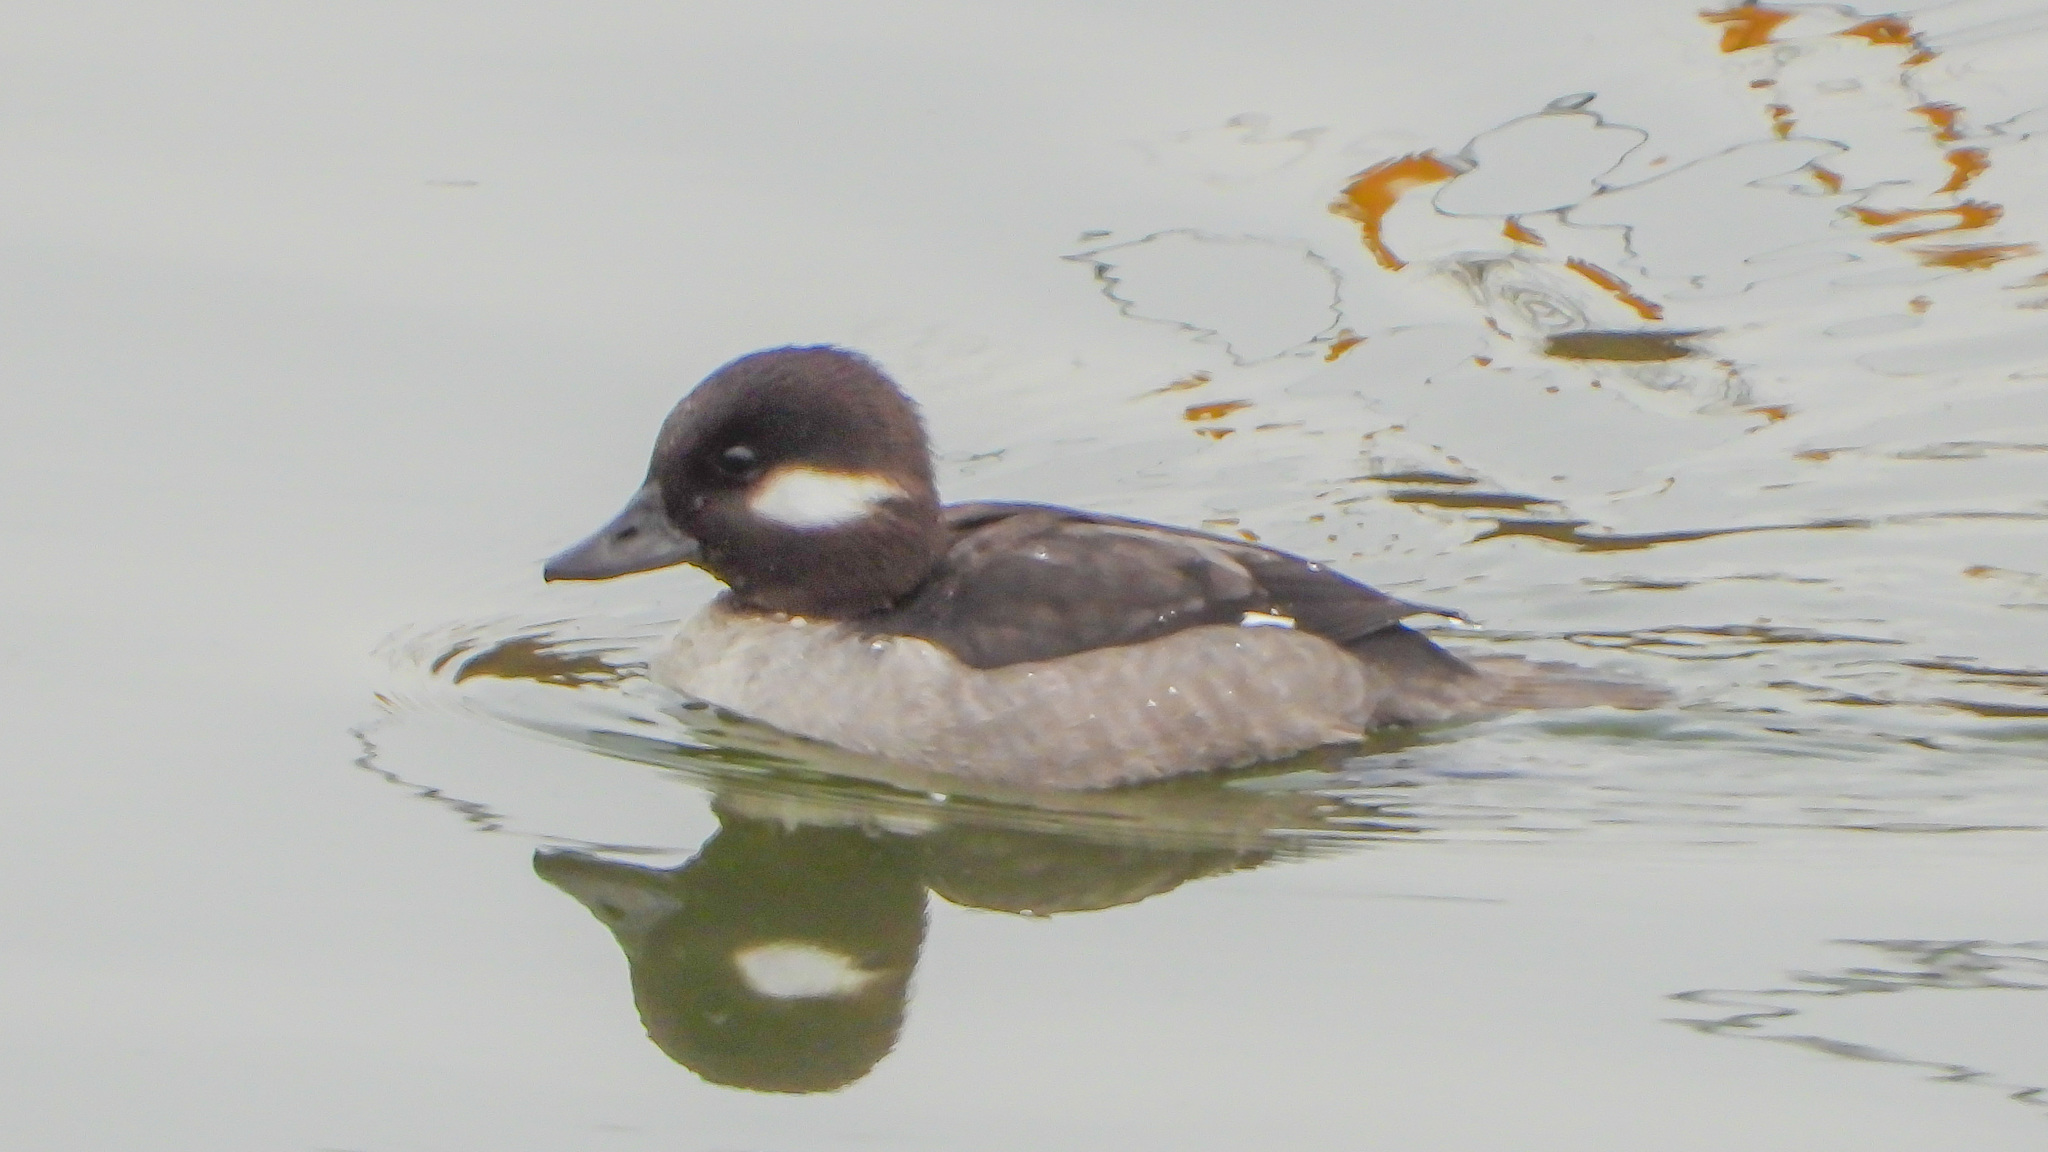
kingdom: Animalia
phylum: Chordata
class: Aves
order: Anseriformes
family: Anatidae
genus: Bucephala
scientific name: Bucephala albeola
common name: Bufflehead
